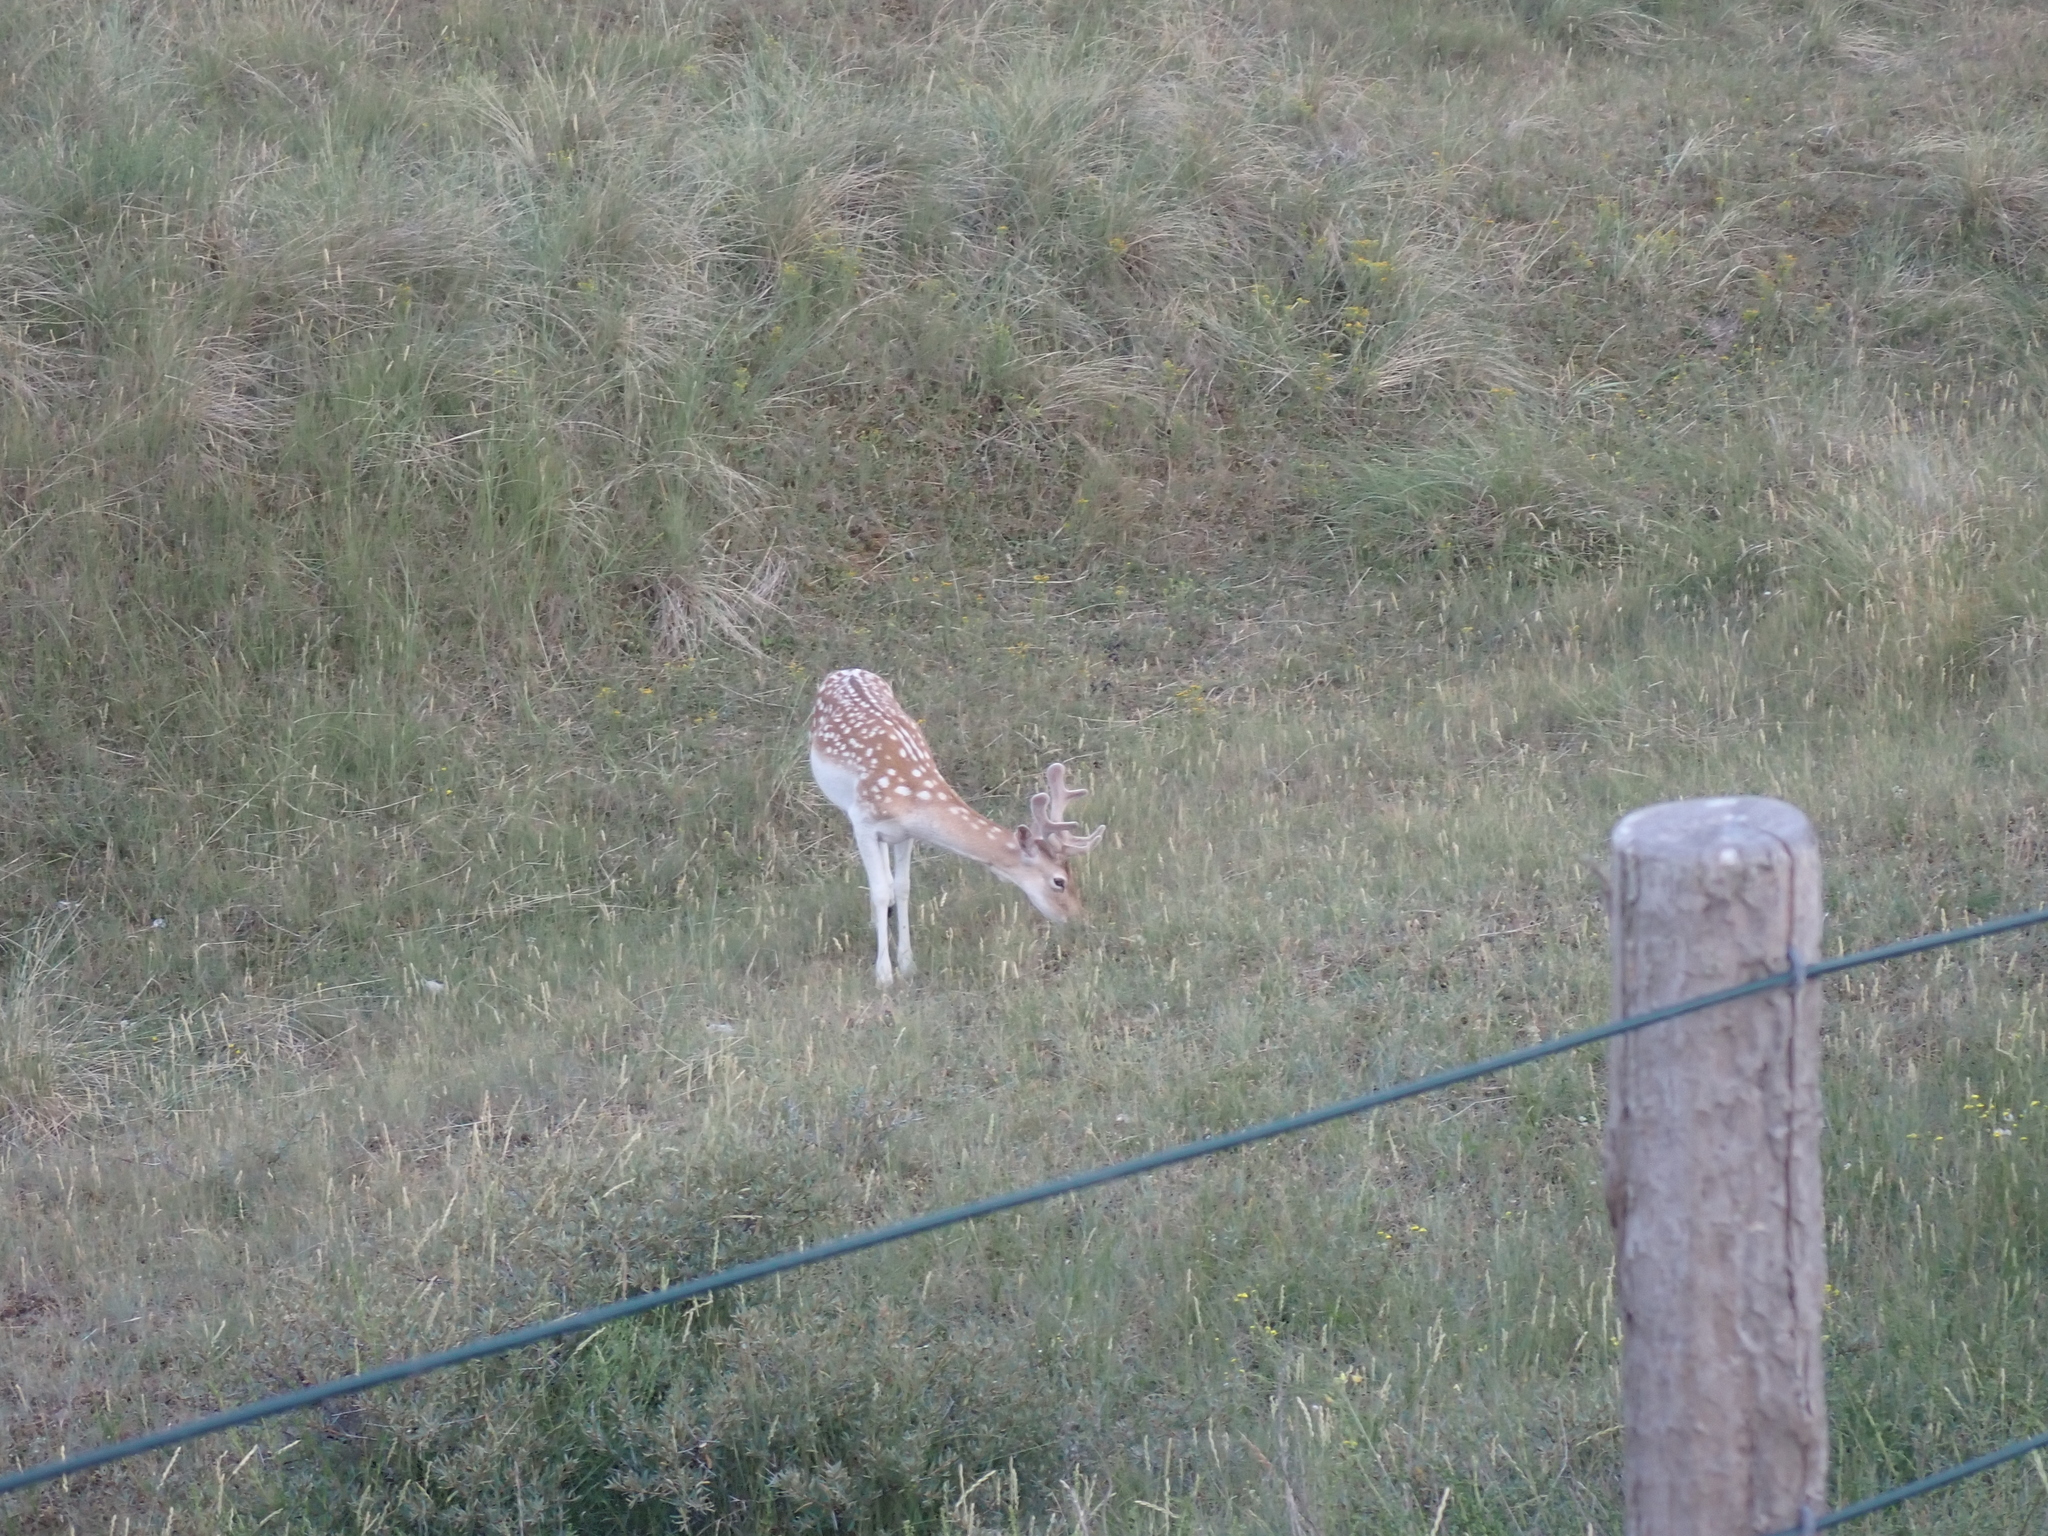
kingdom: Animalia
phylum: Chordata
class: Mammalia
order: Artiodactyla
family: Cervidae
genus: Dama
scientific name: Dama dama
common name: Fallow deer
